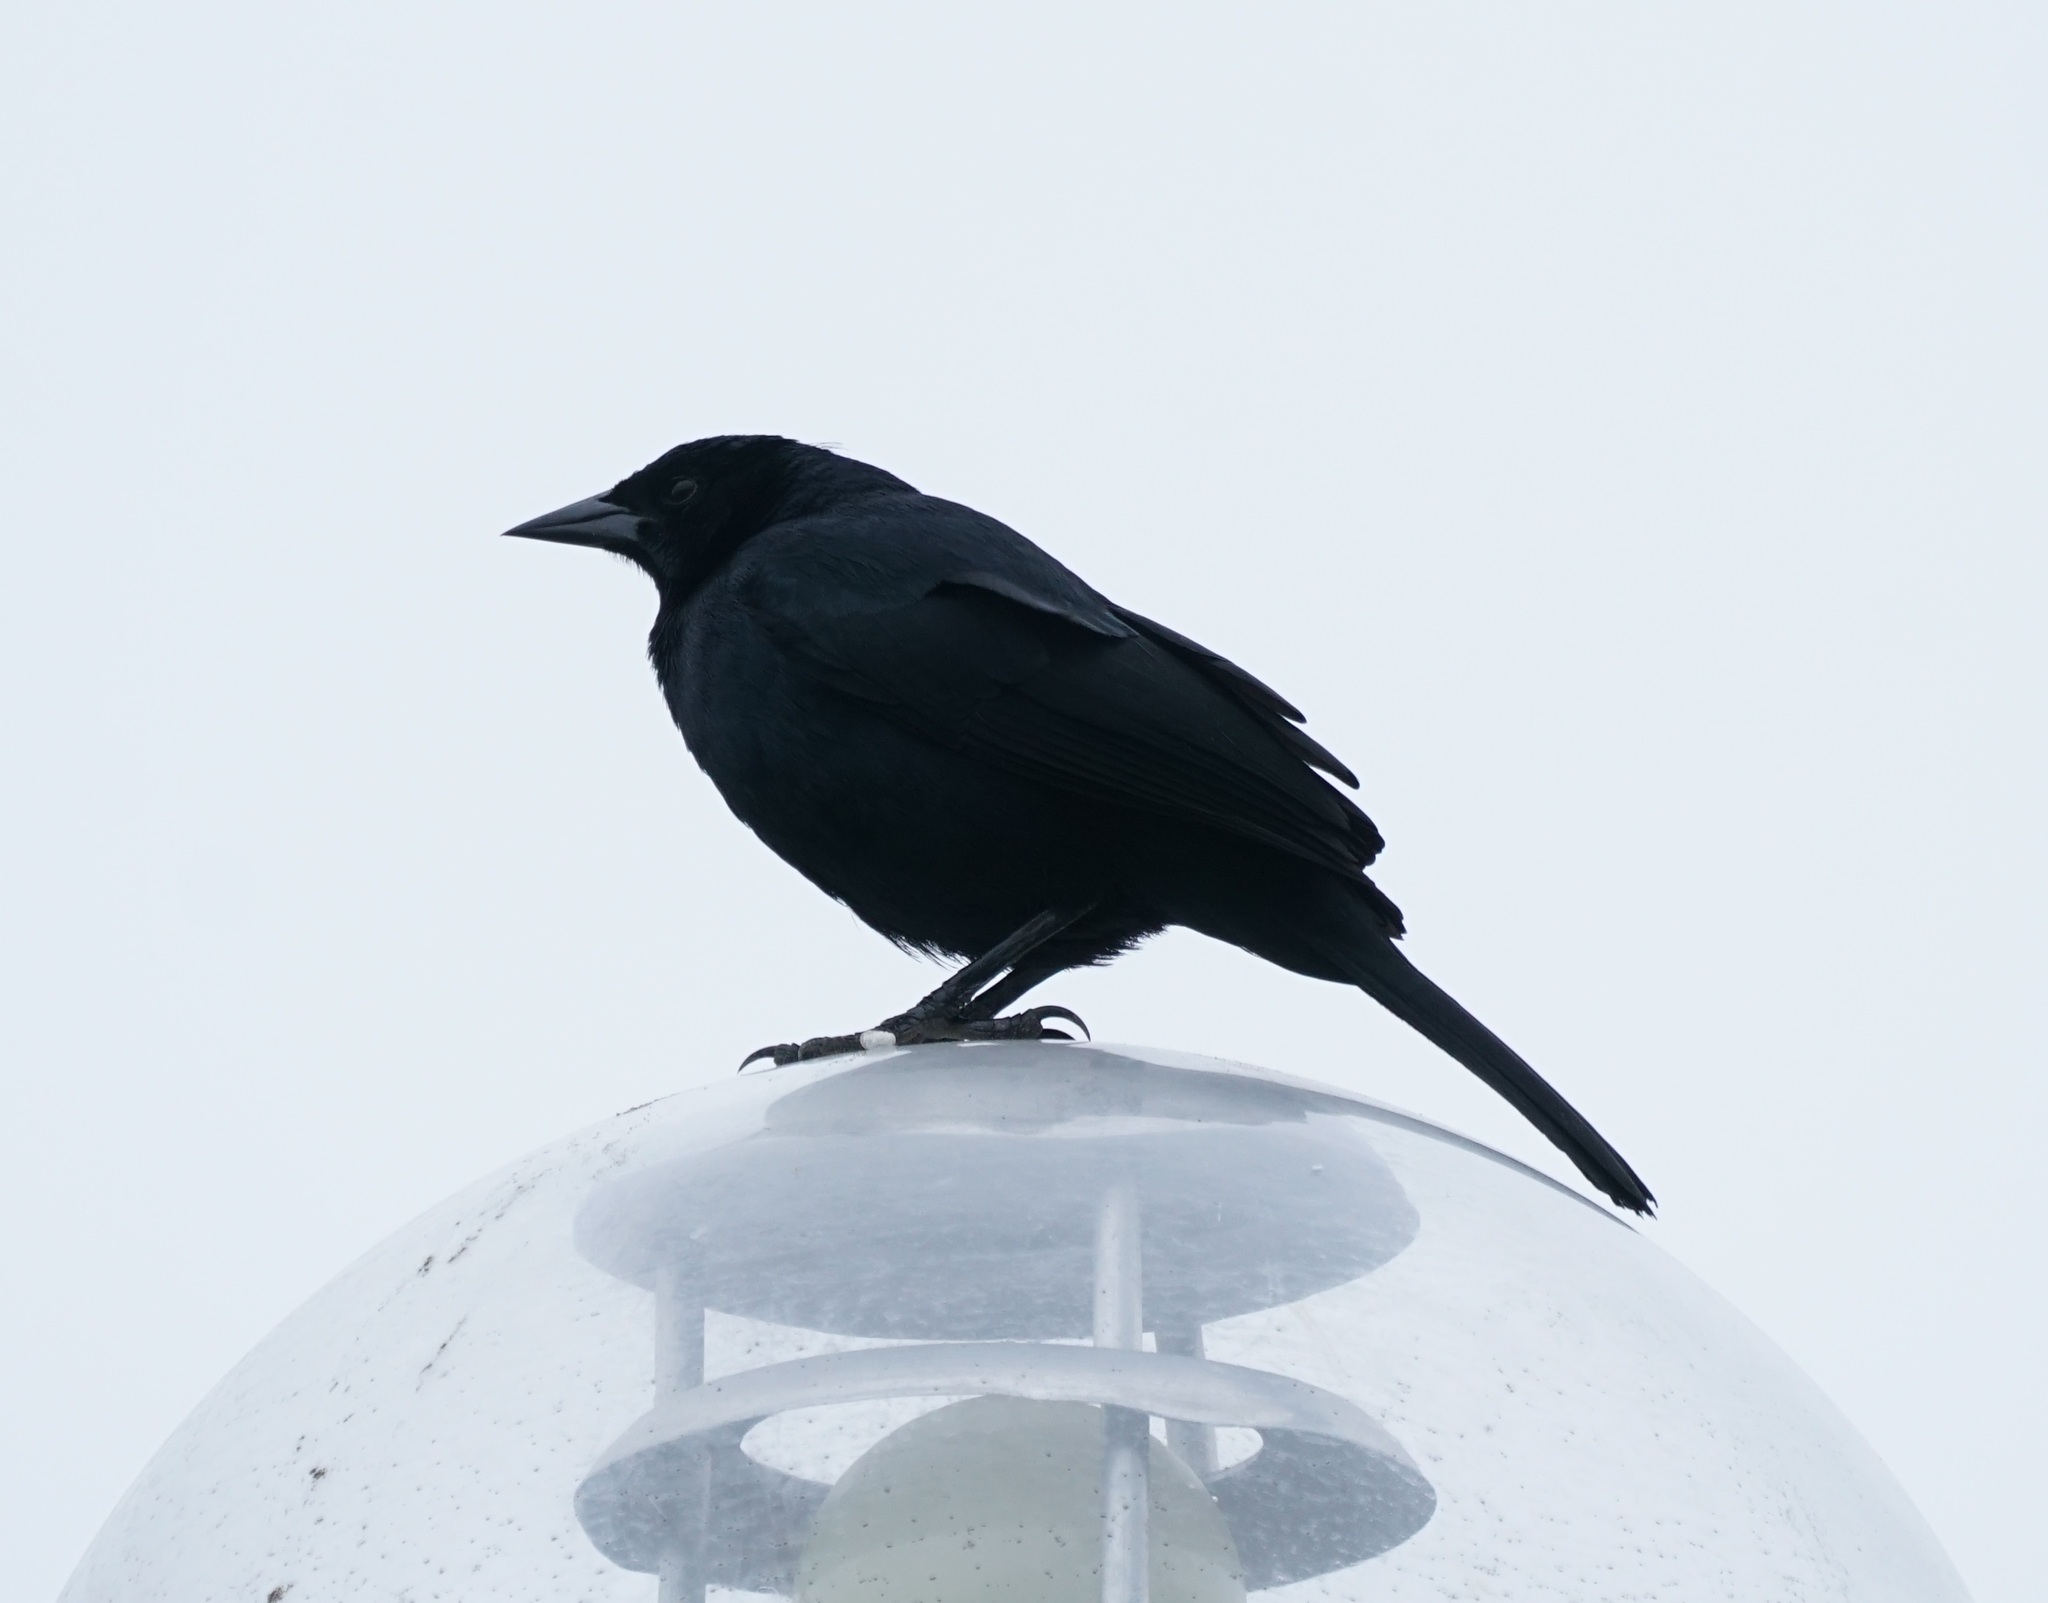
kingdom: Animalia
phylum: Chordata
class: Aves
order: Passeriformes
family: Icteridae
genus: Dives
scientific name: Dives warczewiczi
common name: Scrub blackbird
